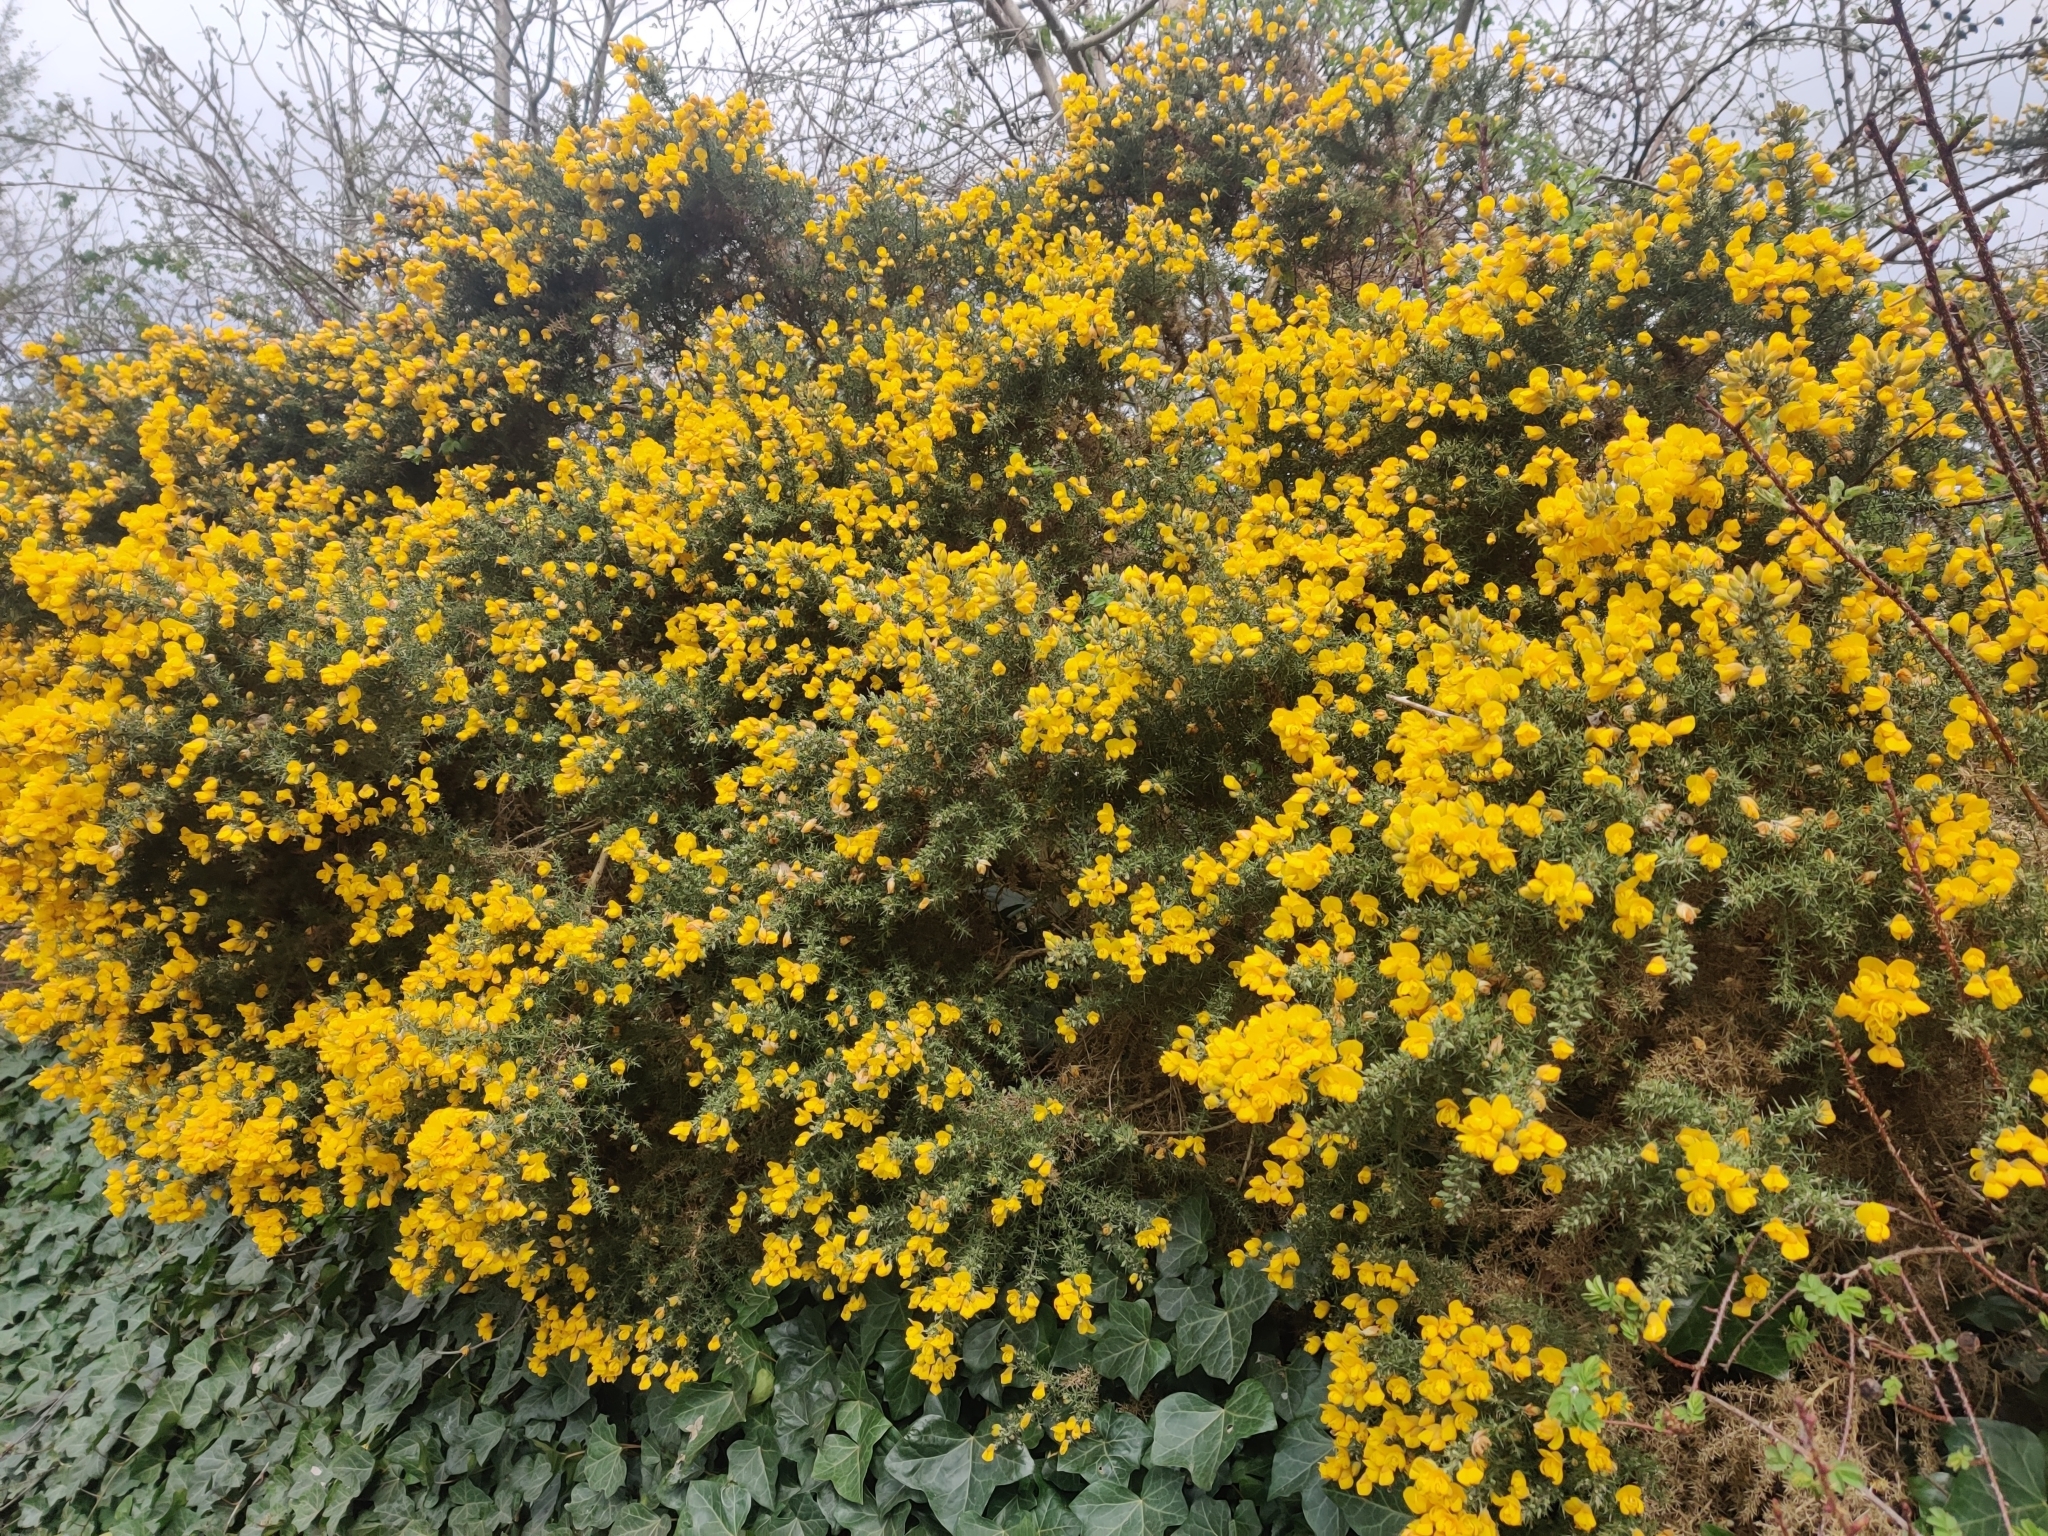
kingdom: Plantae
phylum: Tracheophyta
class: Magnoliopsida
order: Fabales
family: Fabaceae
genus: Ulex
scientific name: Ulex europaeus
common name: Common gorse
